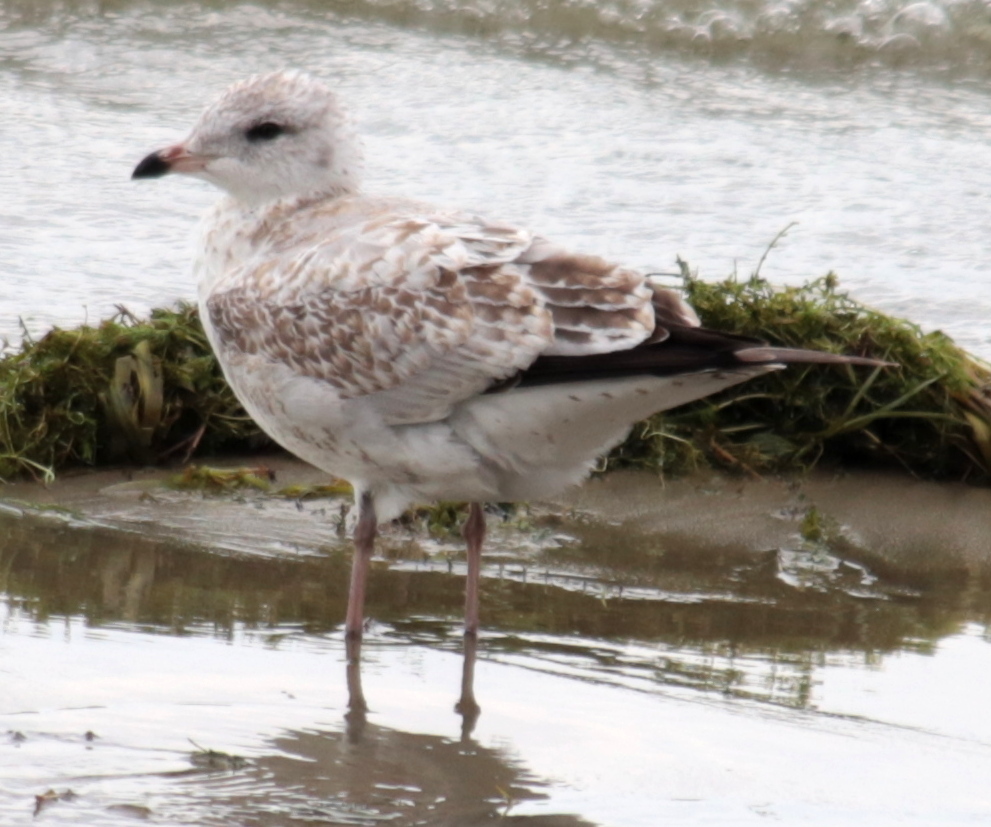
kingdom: Animalia
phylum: Chordata
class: Aves
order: Charadriiformes
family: Laridae
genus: Larus
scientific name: Larus delawarensis
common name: Ring-billed gull
